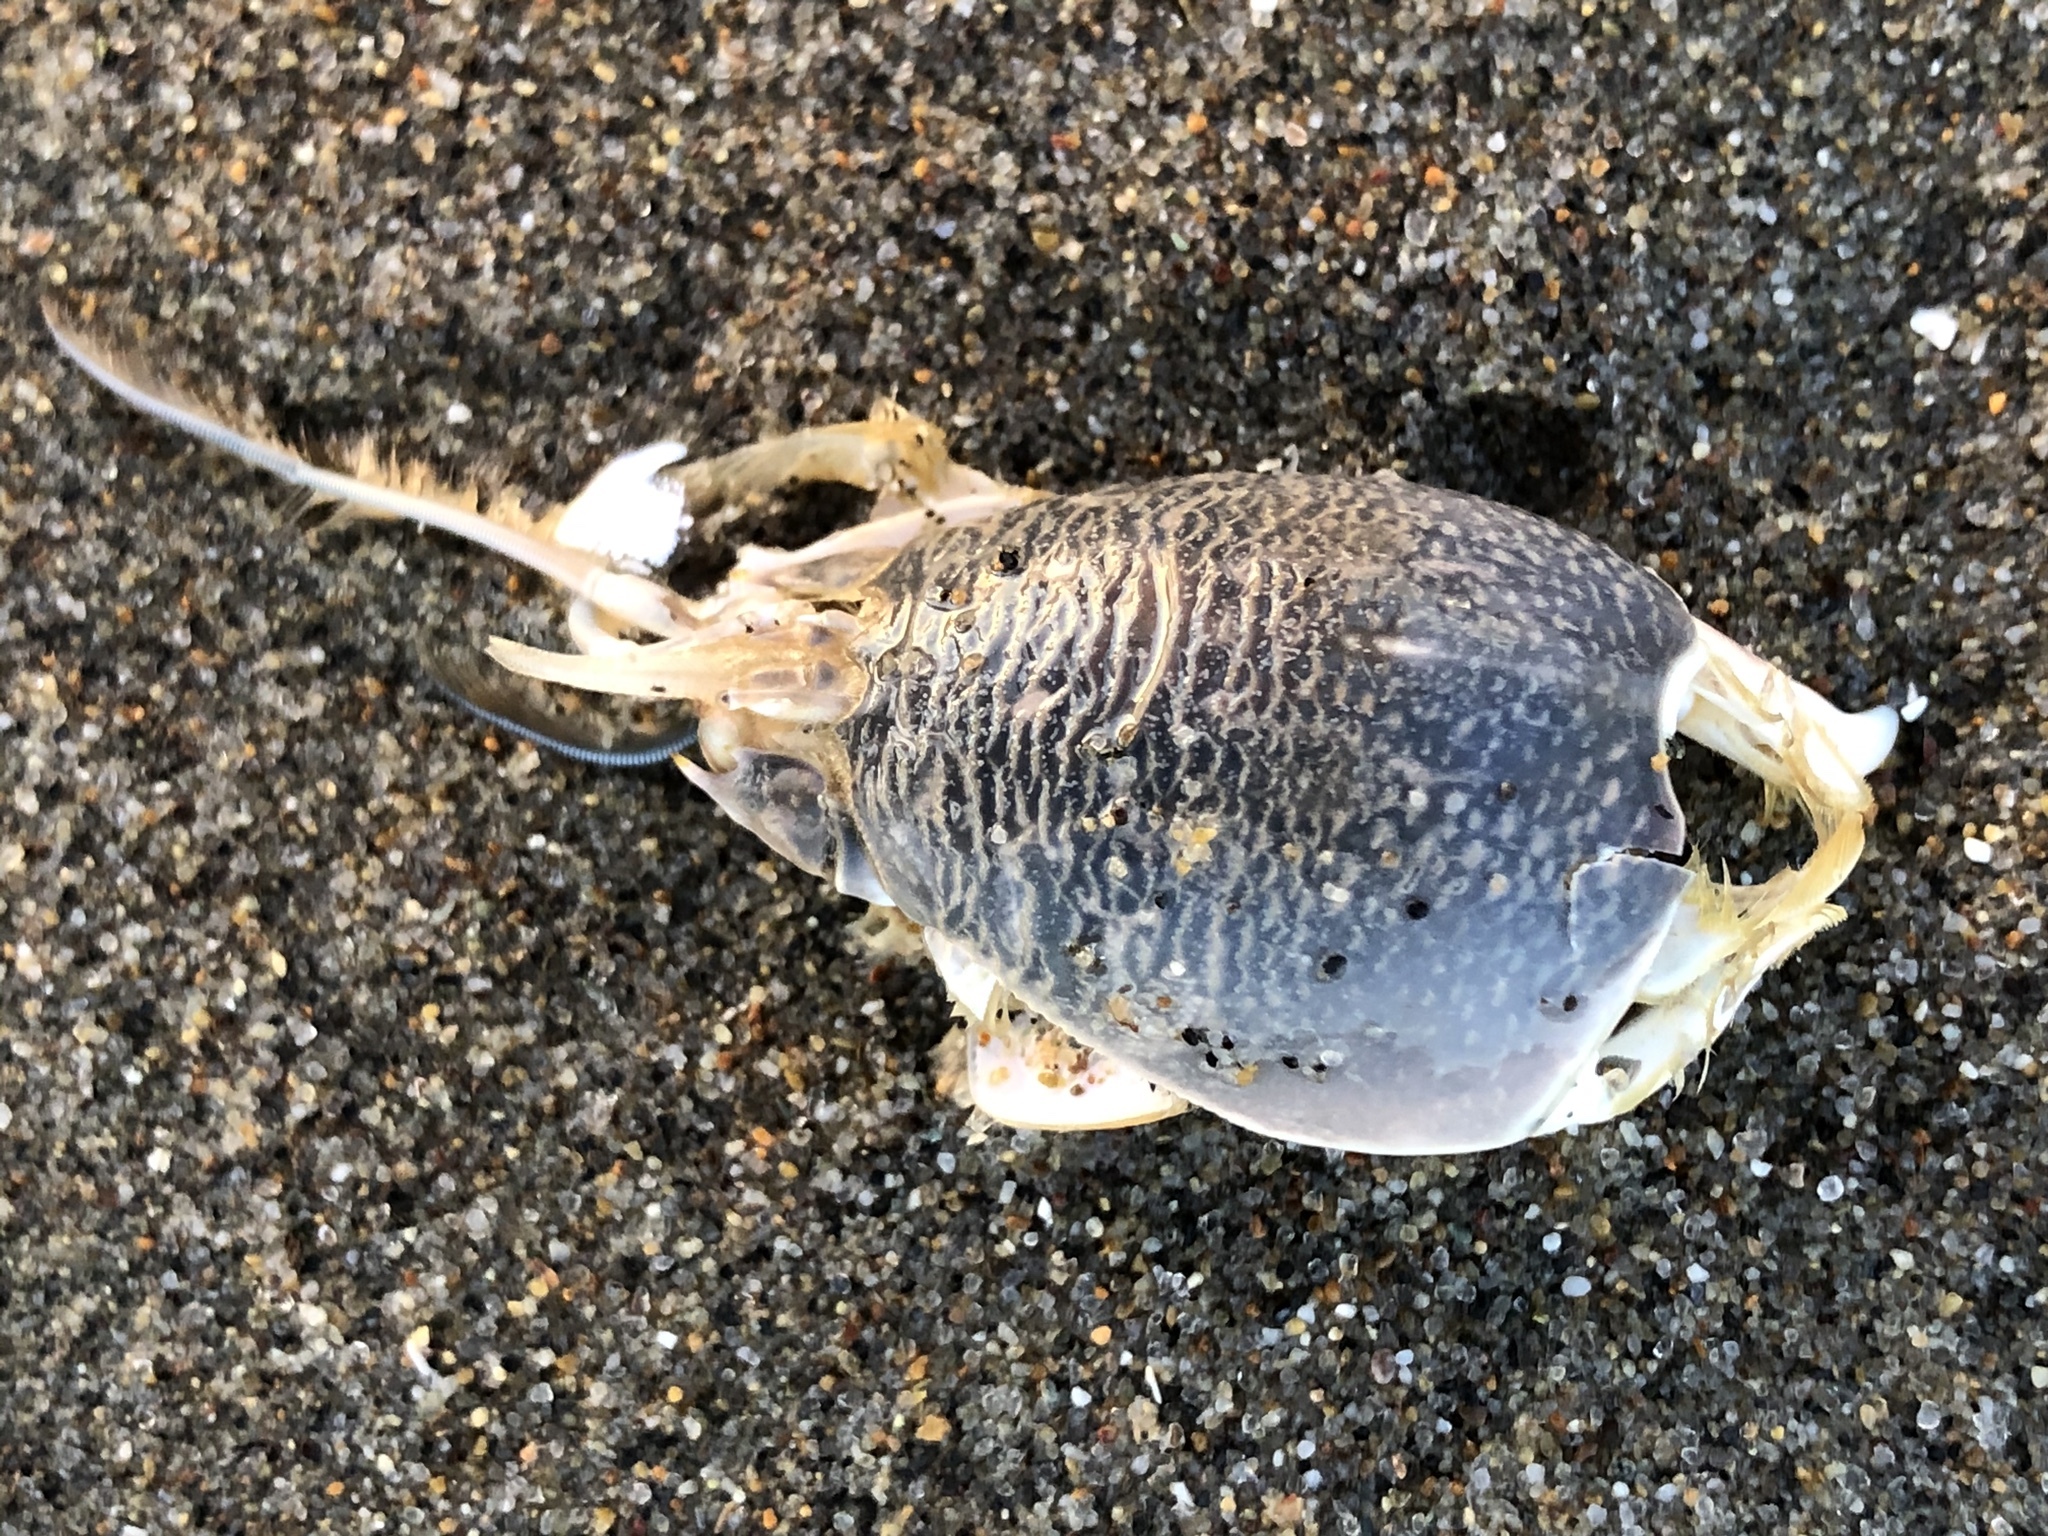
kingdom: Animalia
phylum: Arthropoda
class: Malacostraca
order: Decapoda
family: Hippidae
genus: Emerita
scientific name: Emerita analoga
